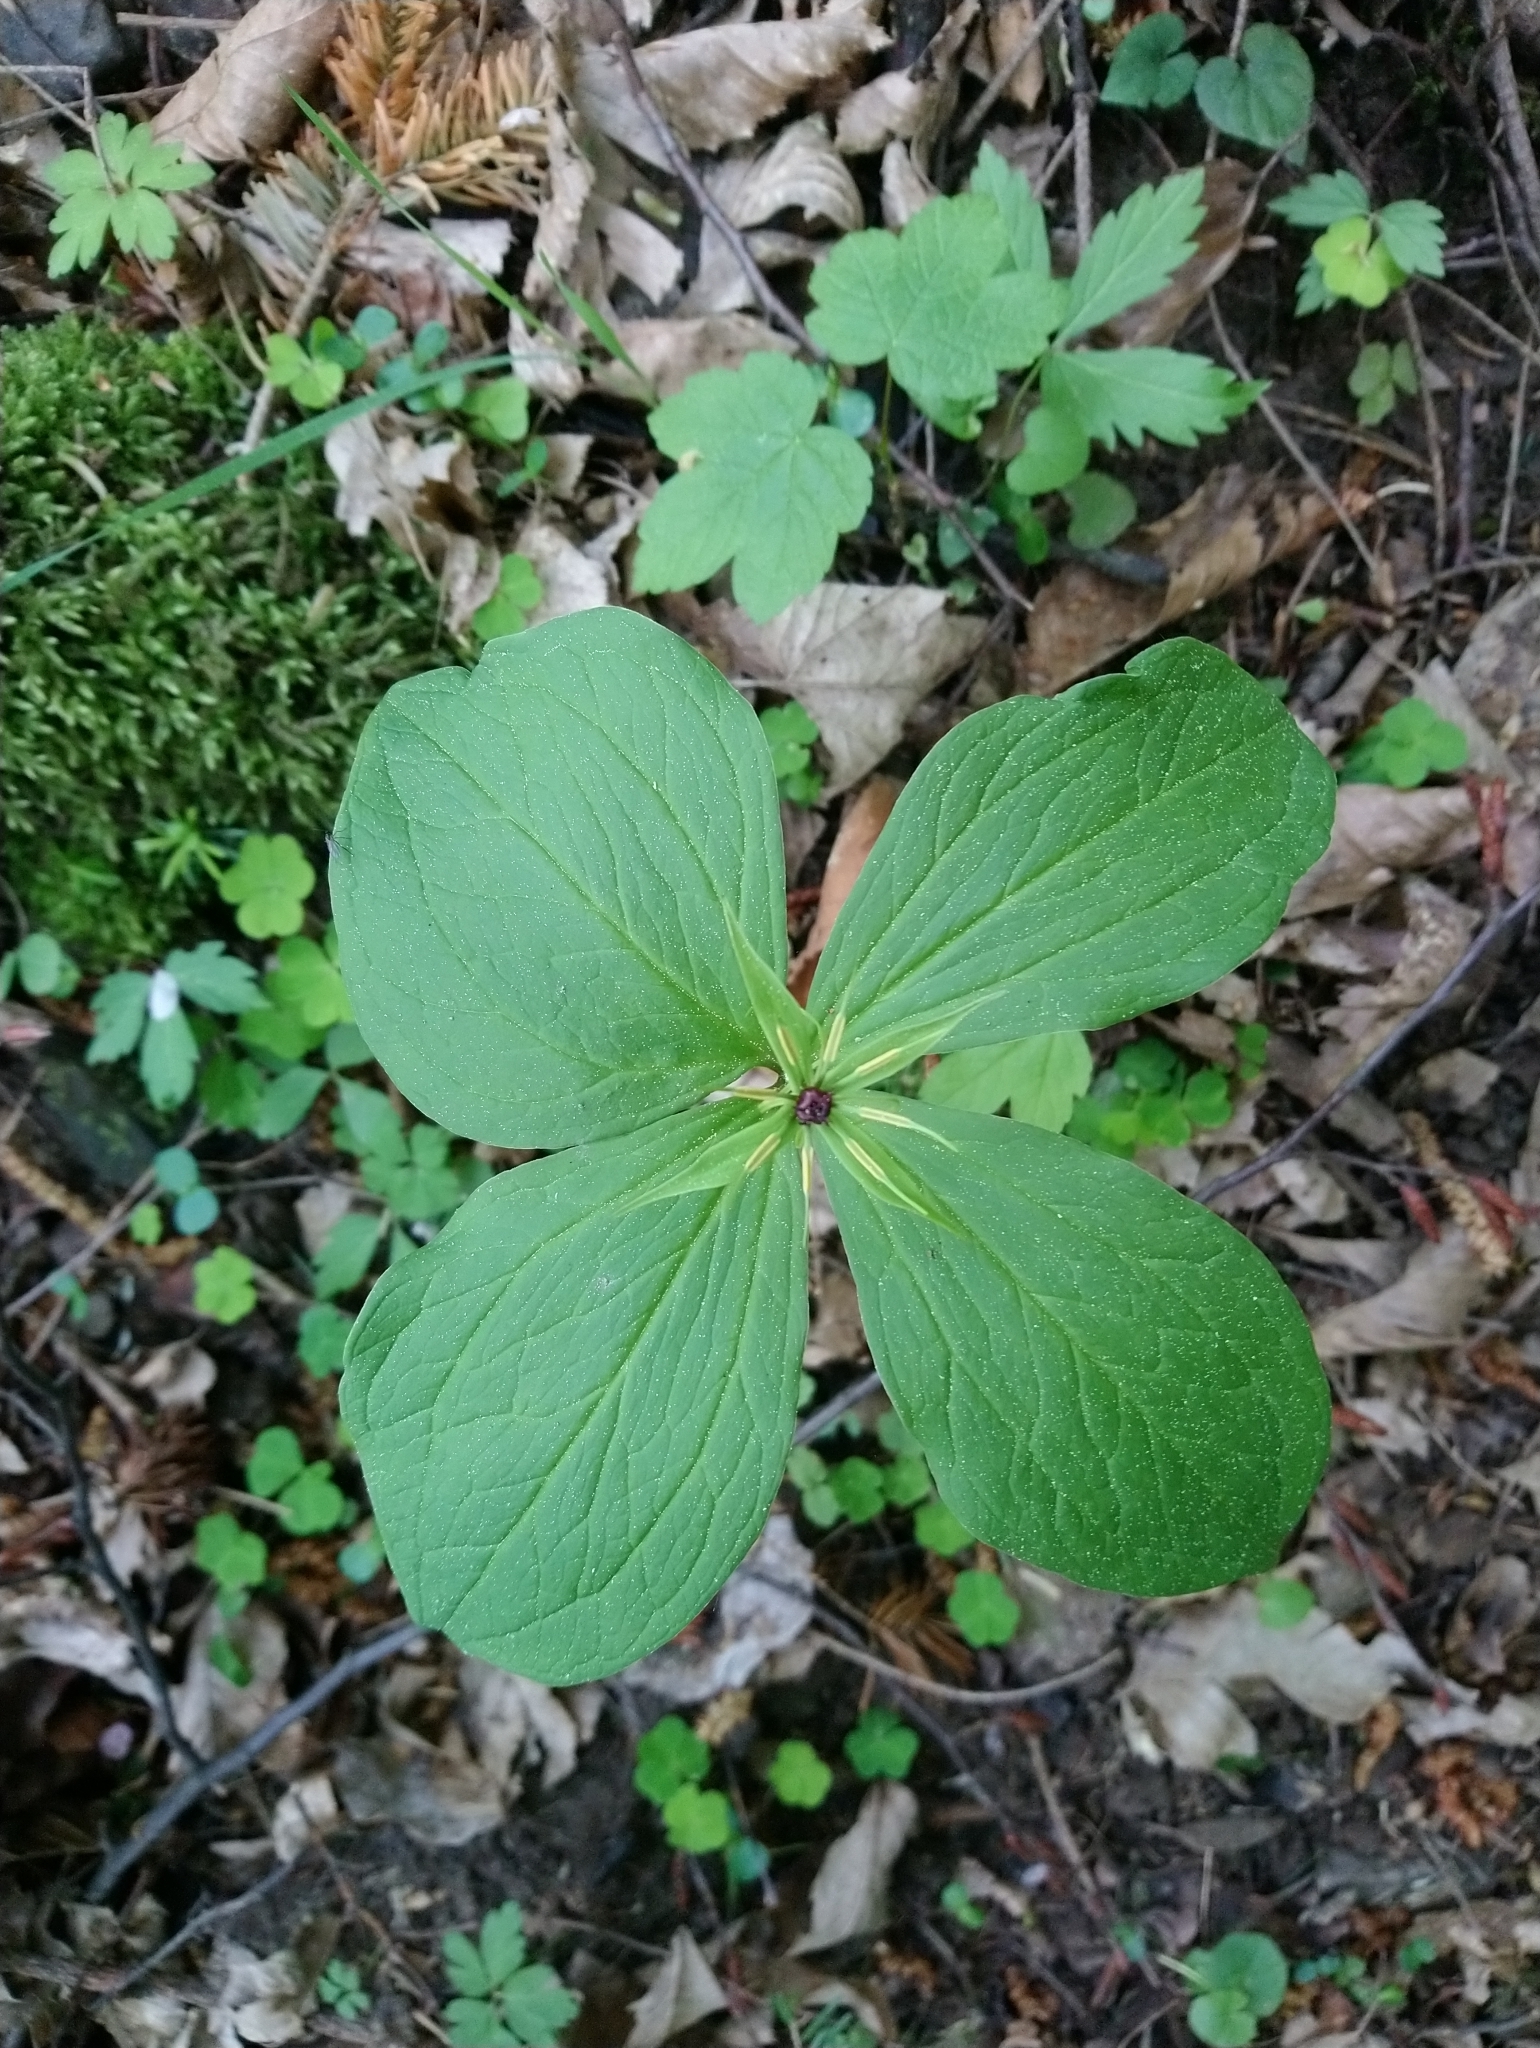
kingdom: Plantae
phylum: Tracheophyta
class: Liliopsida
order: Liliales
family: Melanthiaceae
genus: Paris
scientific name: Paris quadrifolia
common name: Herb-paris
